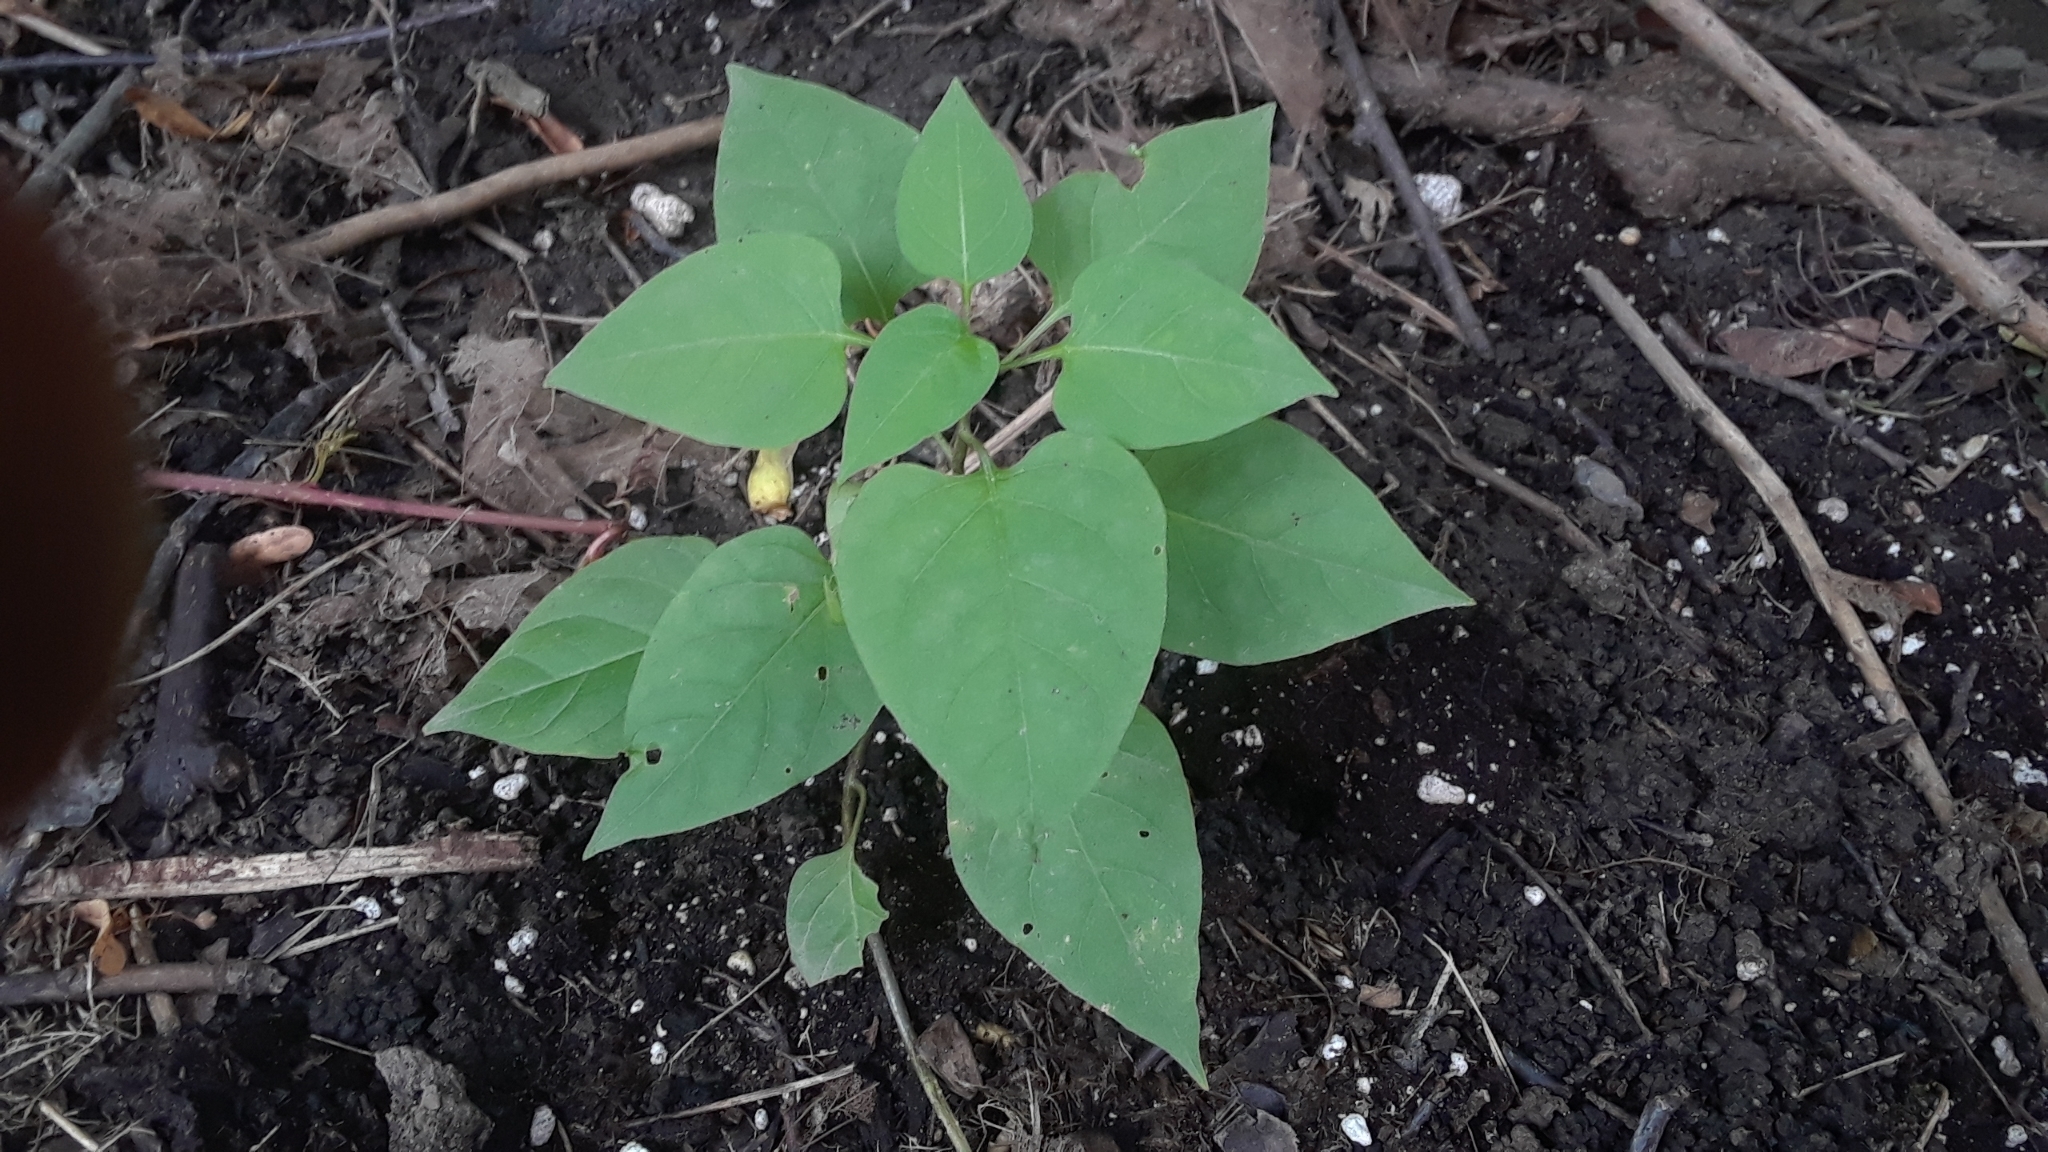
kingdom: Plantae
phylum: Tracheophyta
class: Magnoliopsida
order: Solanales
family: Solanaceae
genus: Solanum
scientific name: Solanum dulcamara
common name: Climbing nightshade
